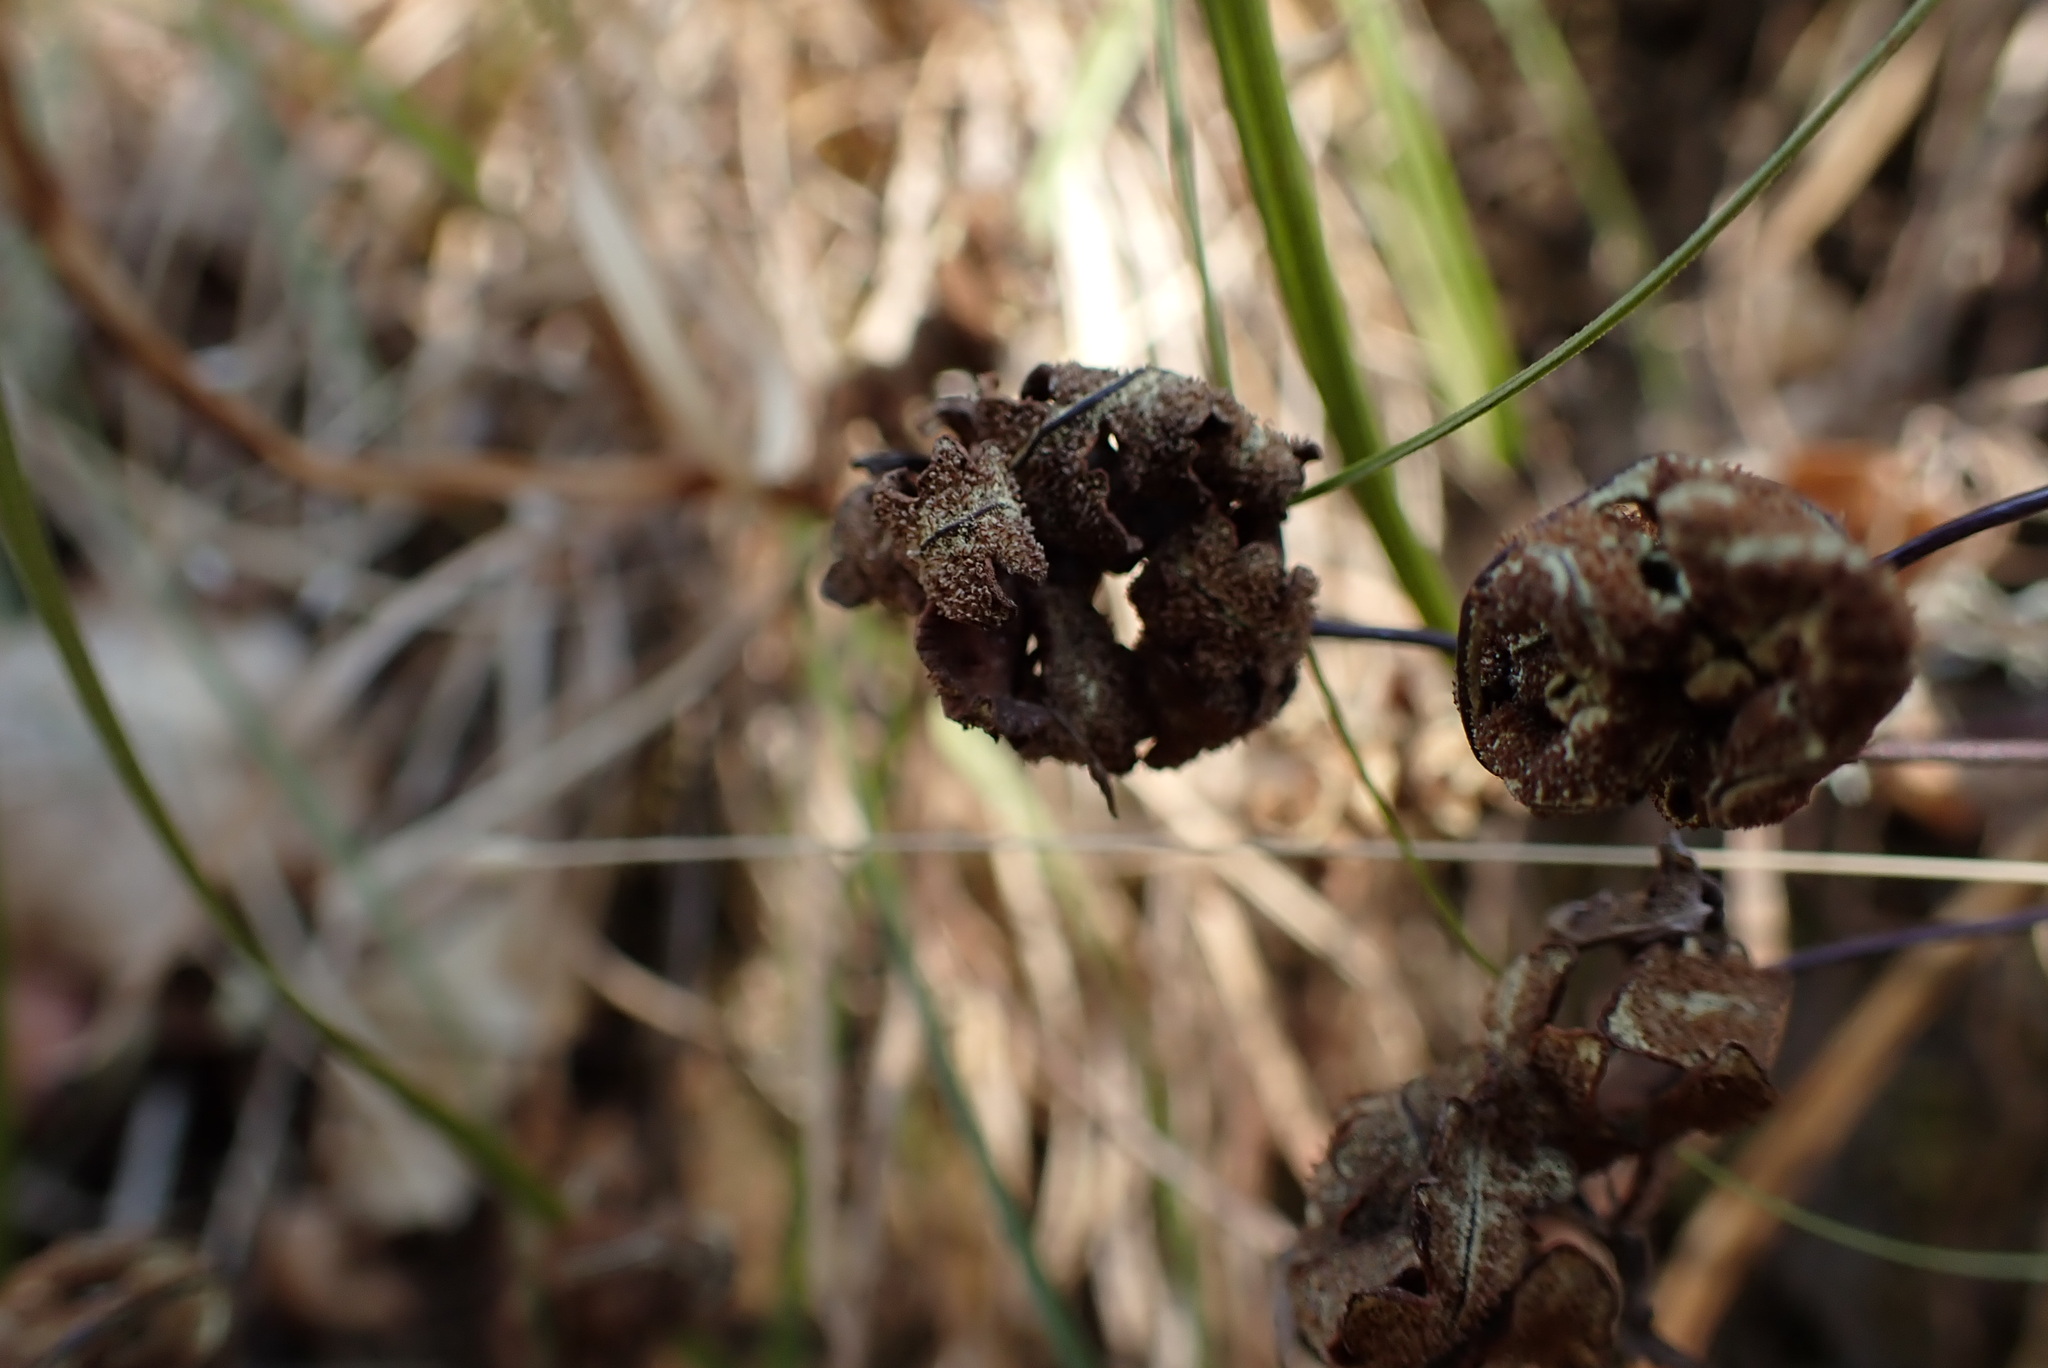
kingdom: Plantae
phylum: Tracheophyta
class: Polypodiopsida
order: Polypodiales
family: Pteridaceae
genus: Pentagramma
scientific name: Pentagramma triangularis
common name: Gold fern
